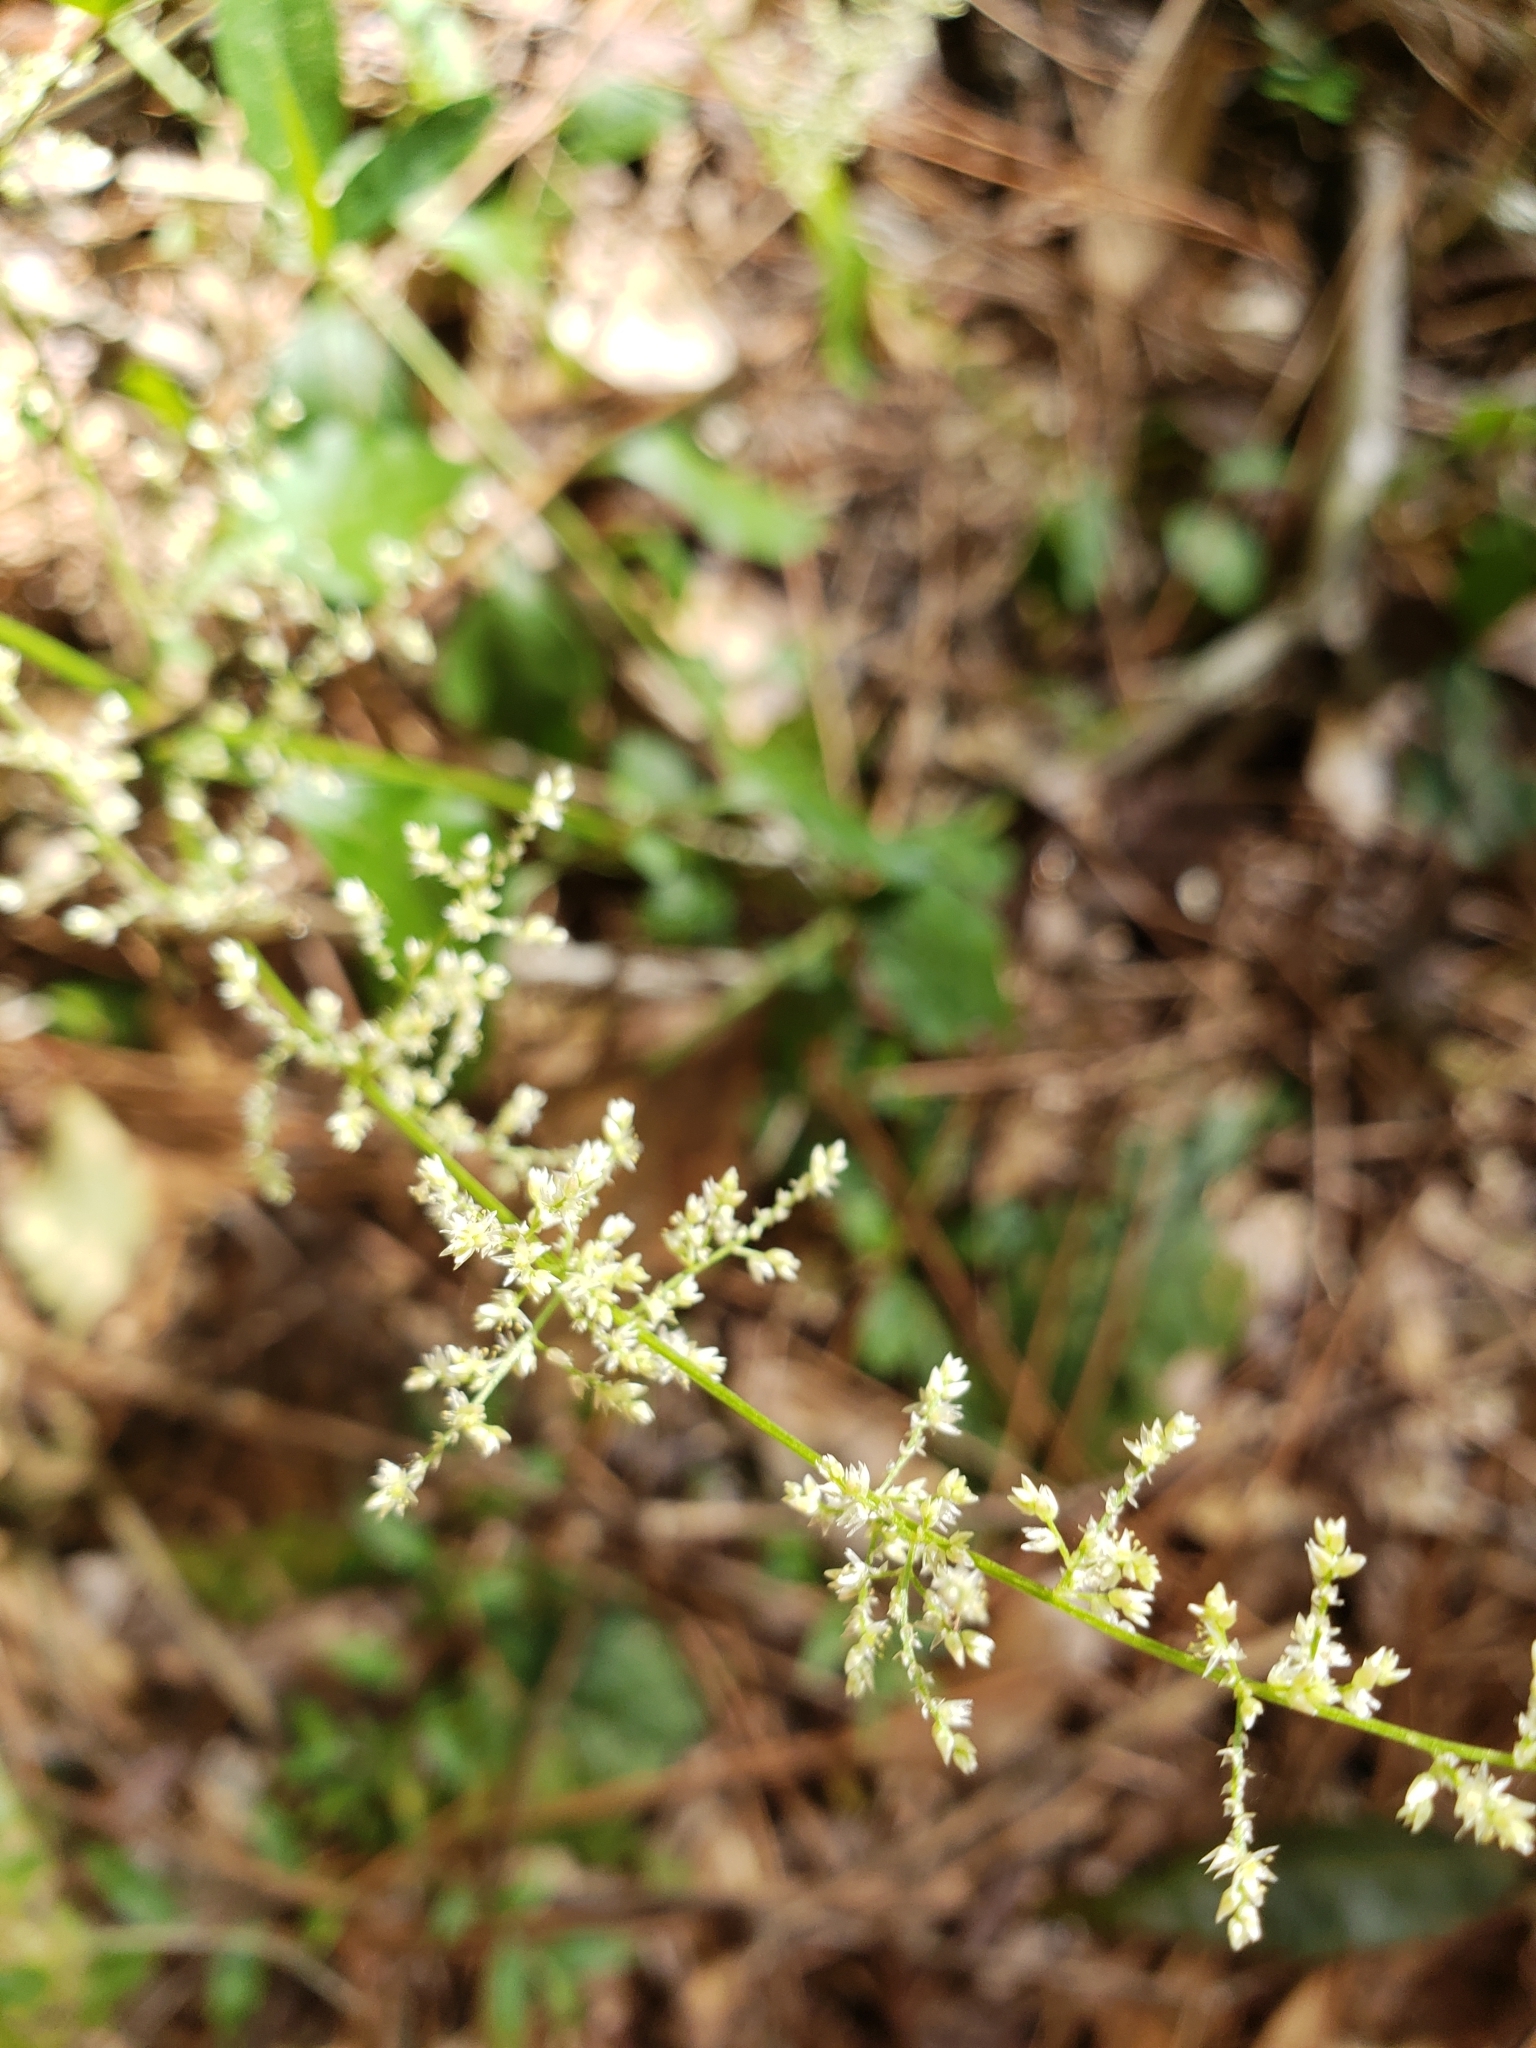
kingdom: Plantae
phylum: Tracheophyta
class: Magnoliopsida
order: Caryophyllales
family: Amaranthaceae
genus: Iresine
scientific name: Iresine diffusa
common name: Juba's-bush
